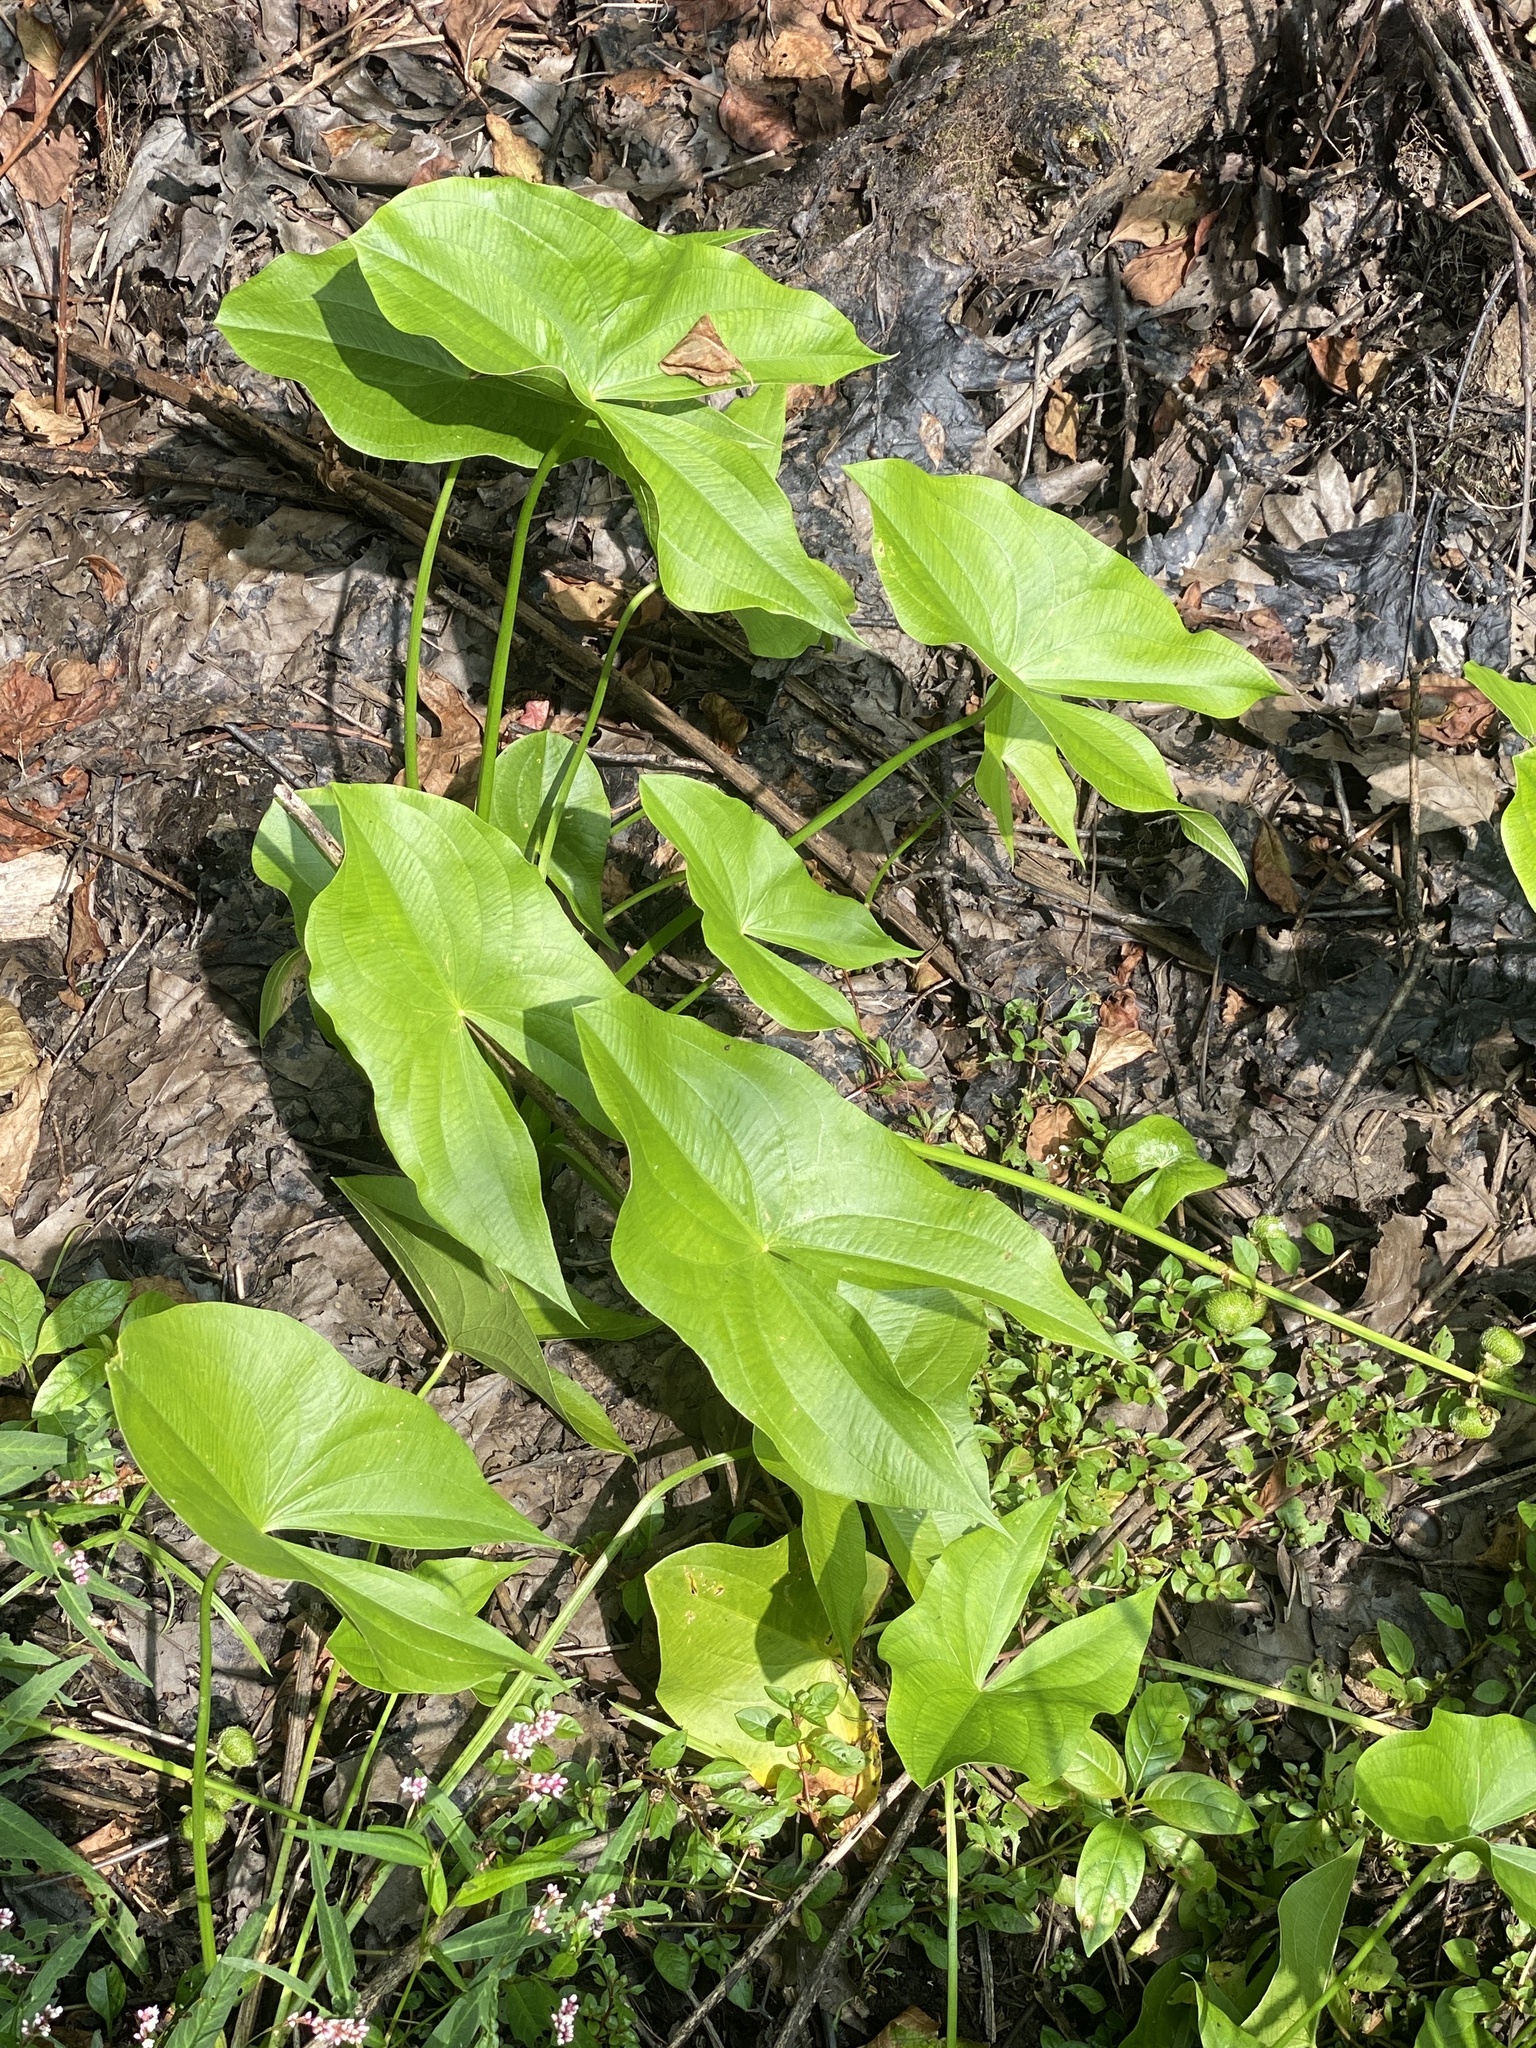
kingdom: Plantae
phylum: Tracheophyta
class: Liliopsida
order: Alismatales
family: Alismataceae
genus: Sagittaria
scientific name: Sagittaria latifolia
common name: Duck-potato
